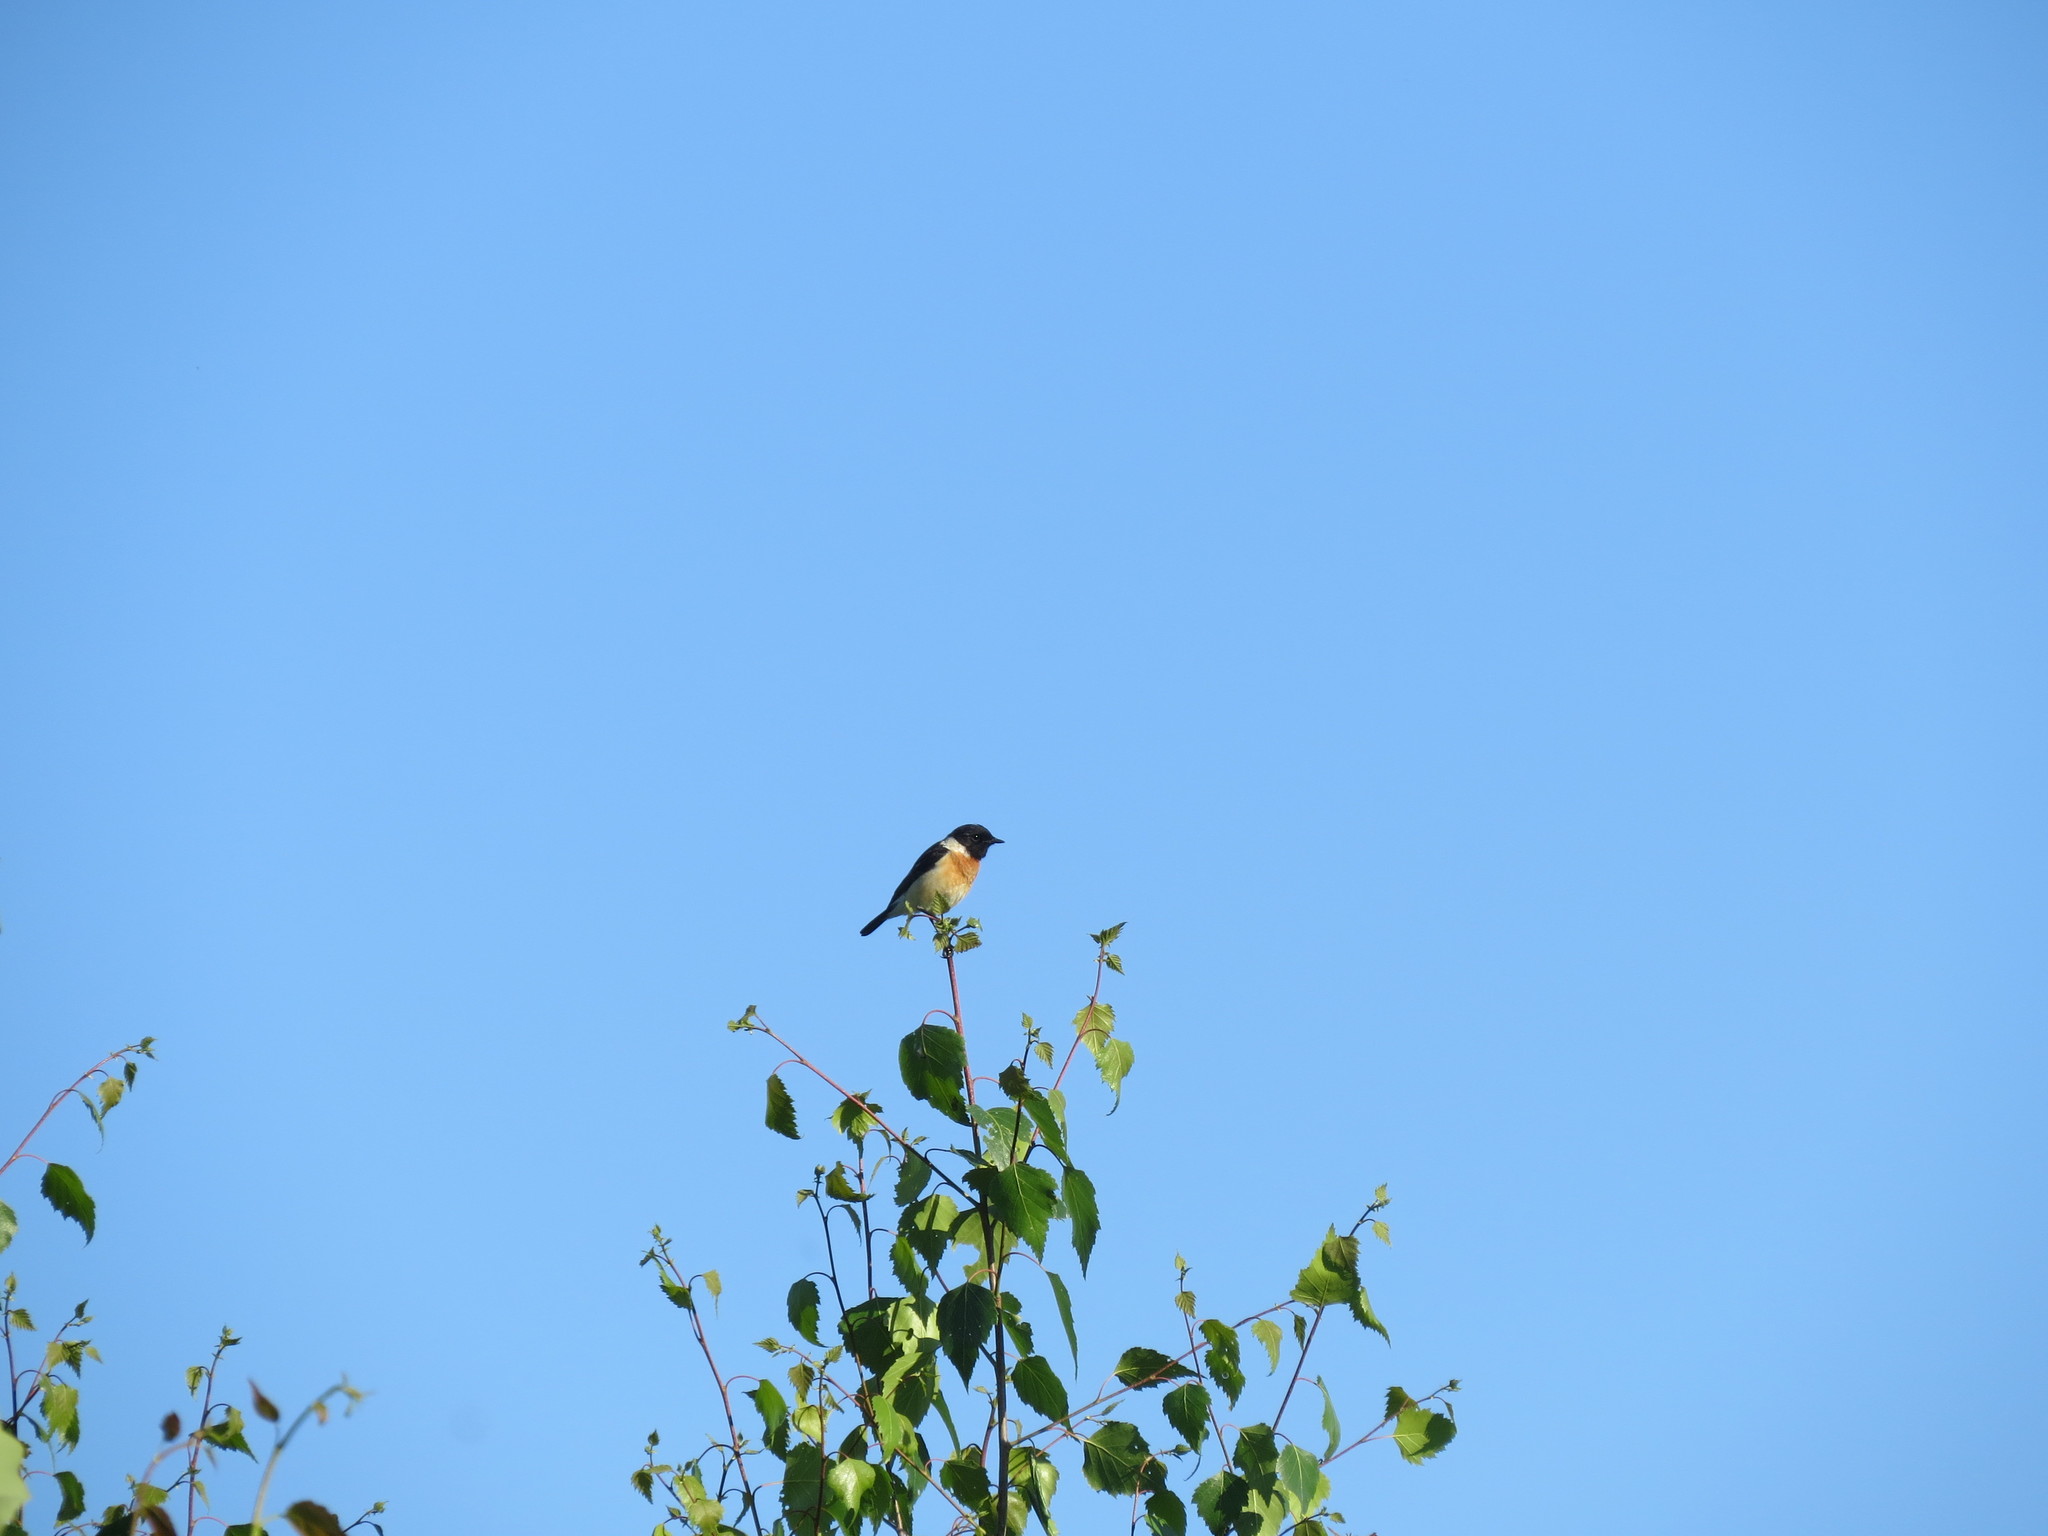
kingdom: Animalia
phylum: Chordata
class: Aves
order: Passeriformes
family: Muscicapidae
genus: Saxicola
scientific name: Saxicola maurus
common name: Siberian stonechat
